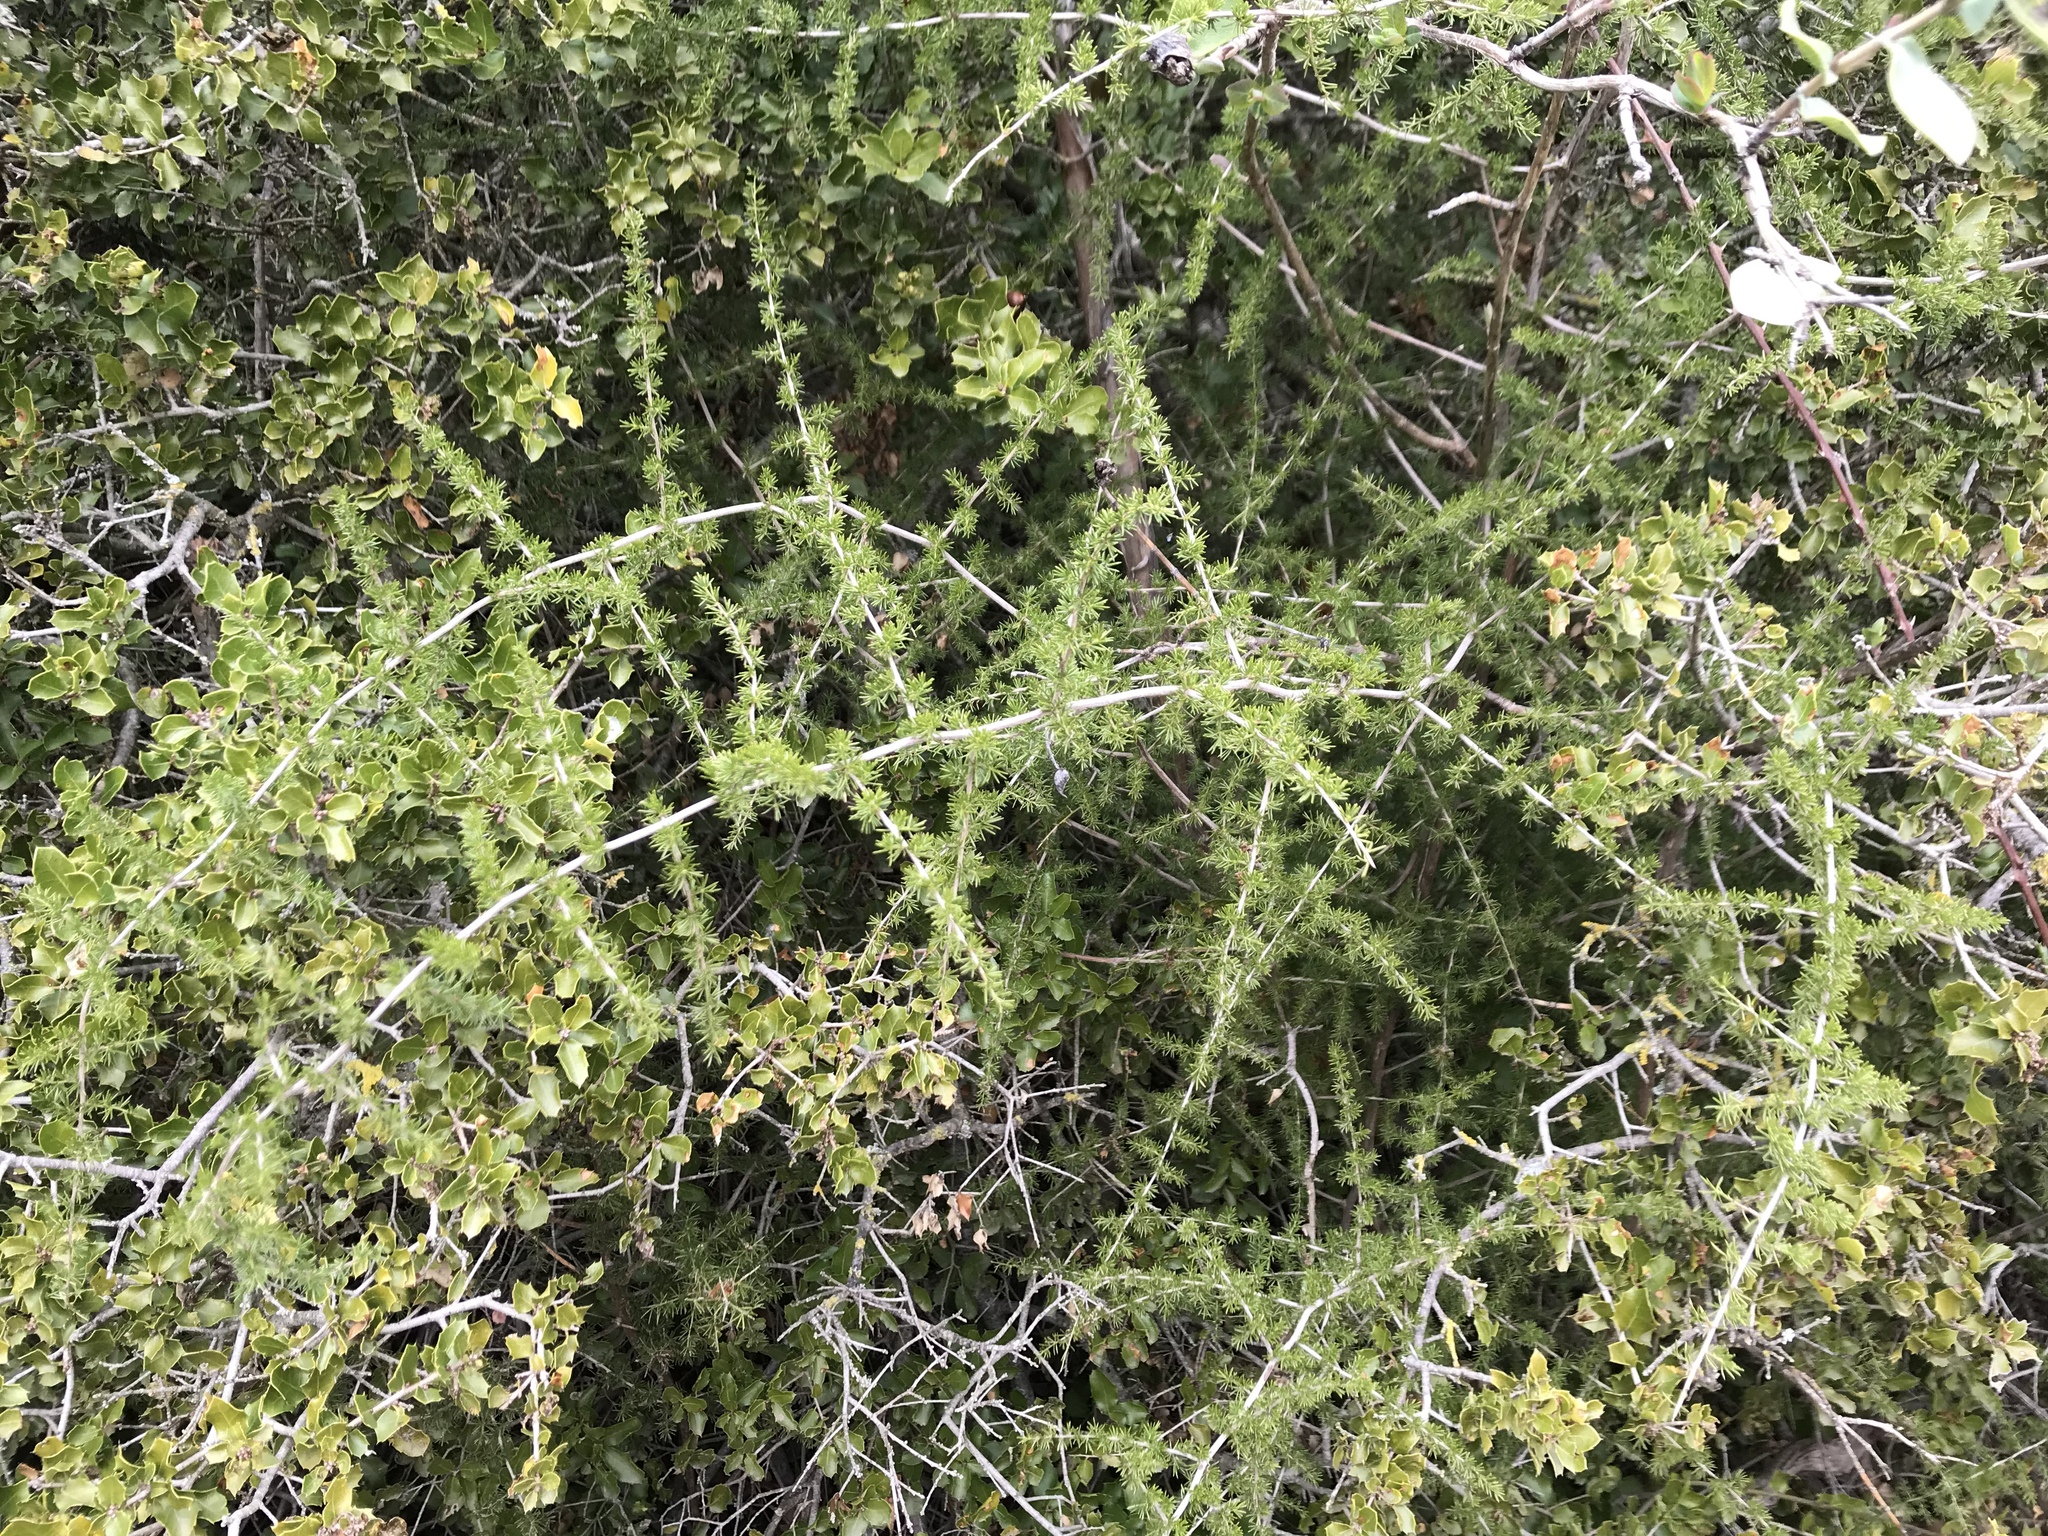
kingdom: Plantae
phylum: Tracheophyta
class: Liliopsida
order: Asparagales
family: Asparagaceae
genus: Asparagus
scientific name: Asparagus acutifolius
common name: Wild asparagus
